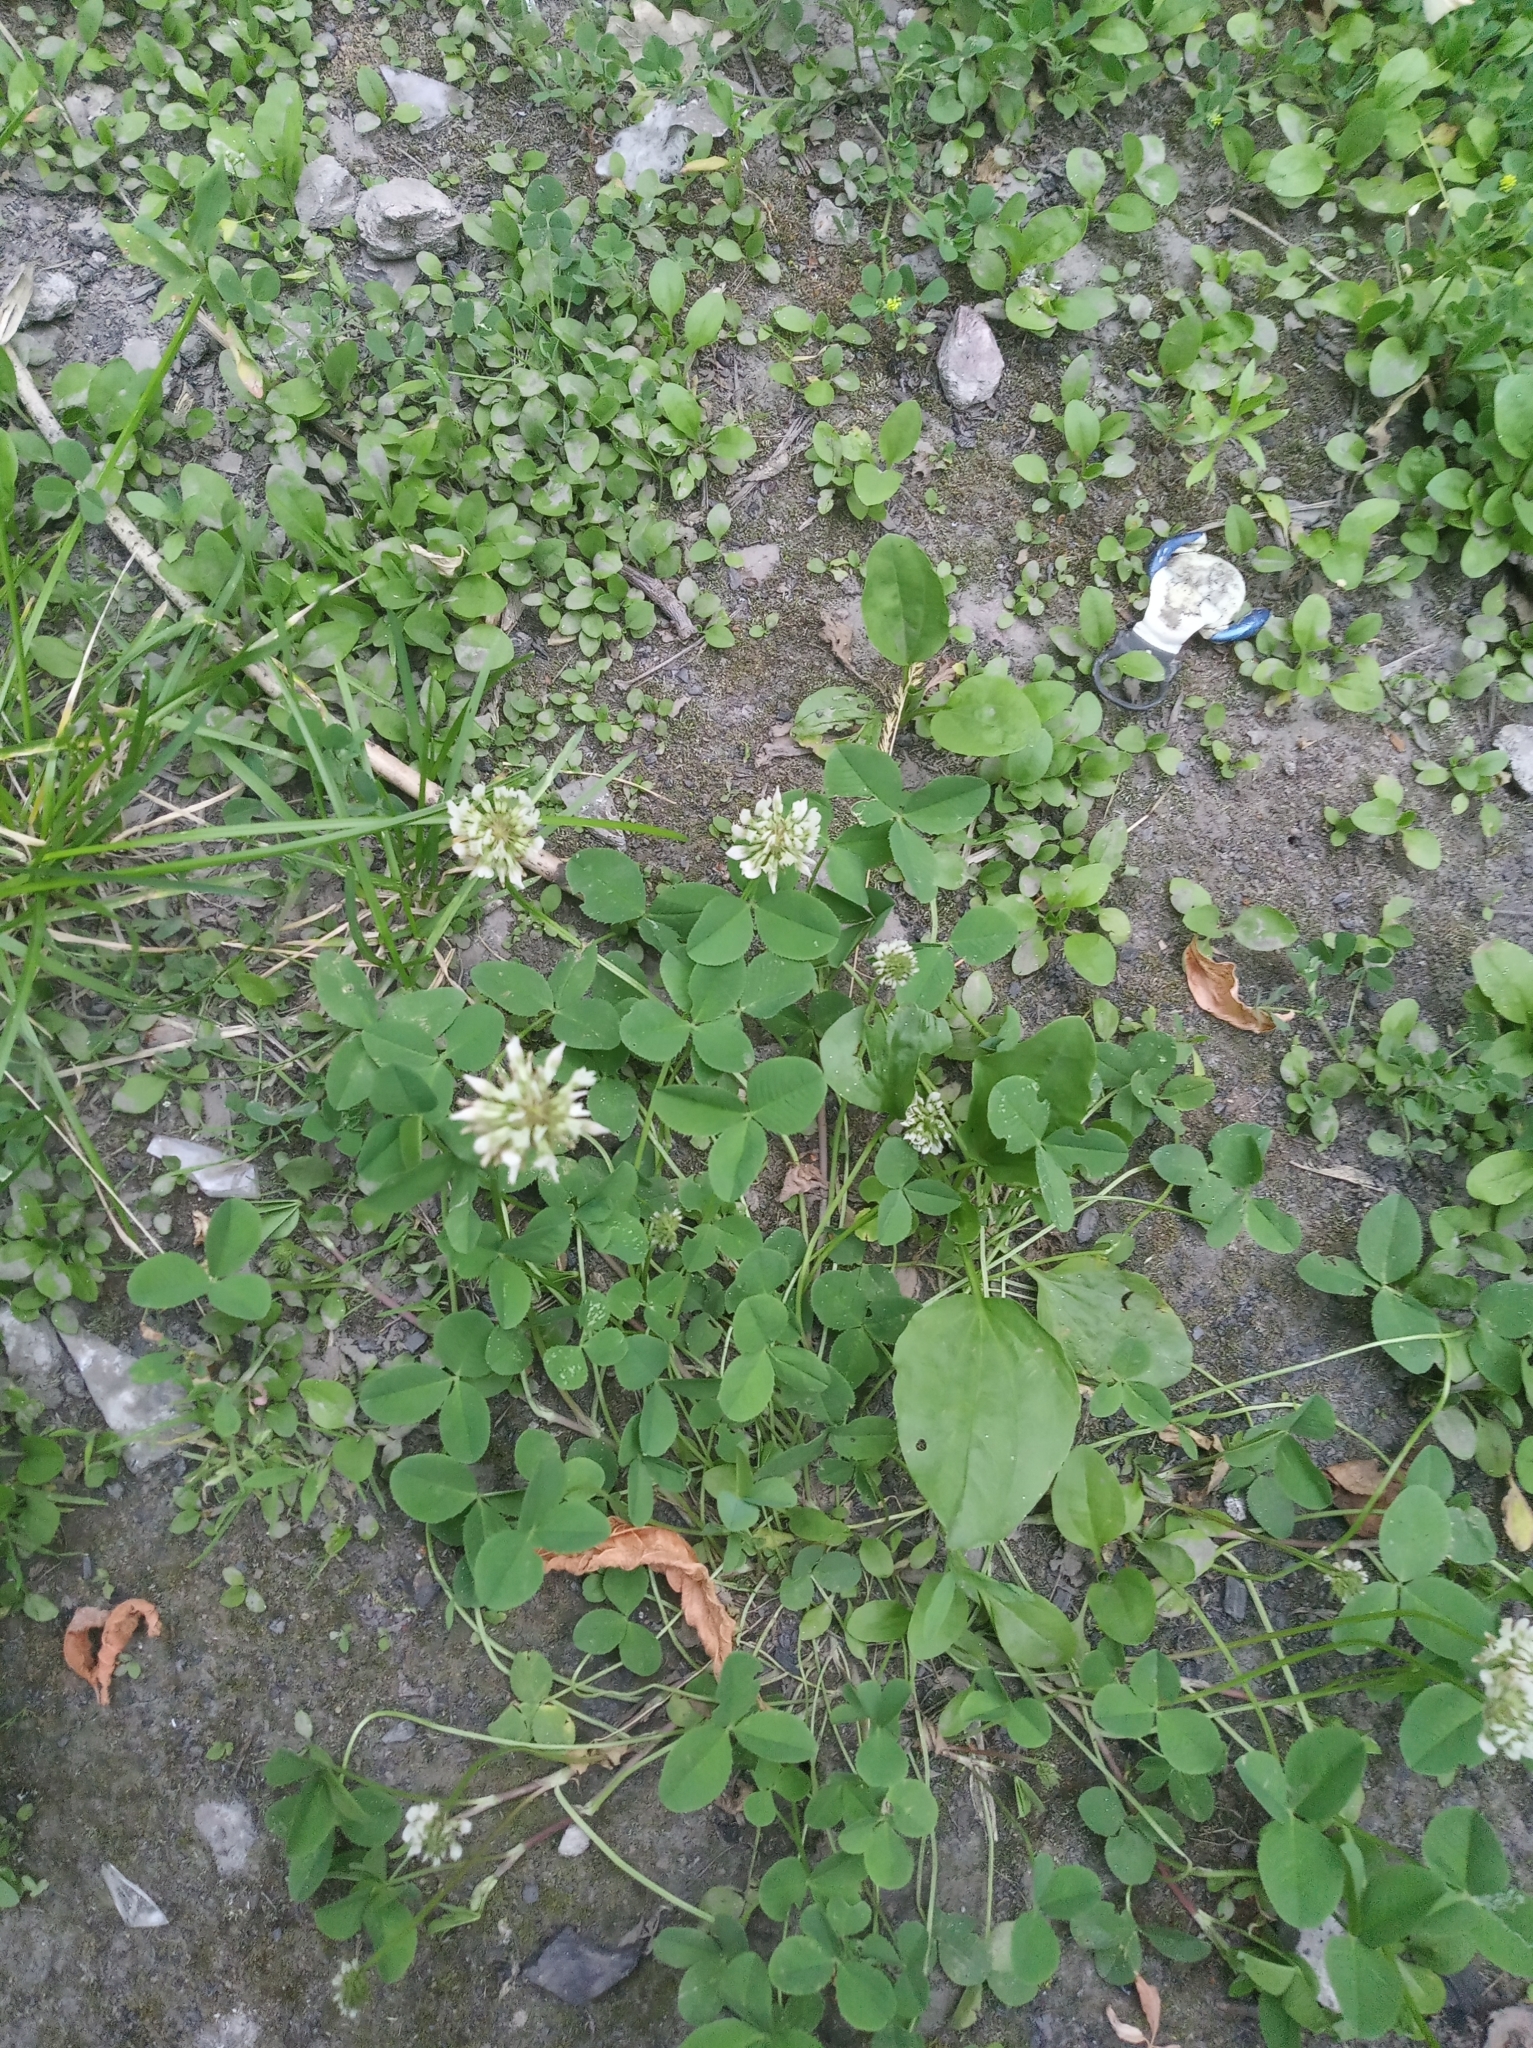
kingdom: Plantae
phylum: Tracheophyta
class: Magnoliopsida
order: Fabales
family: Fabaceae
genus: Trifolium
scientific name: Trifolium repens
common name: White clover
